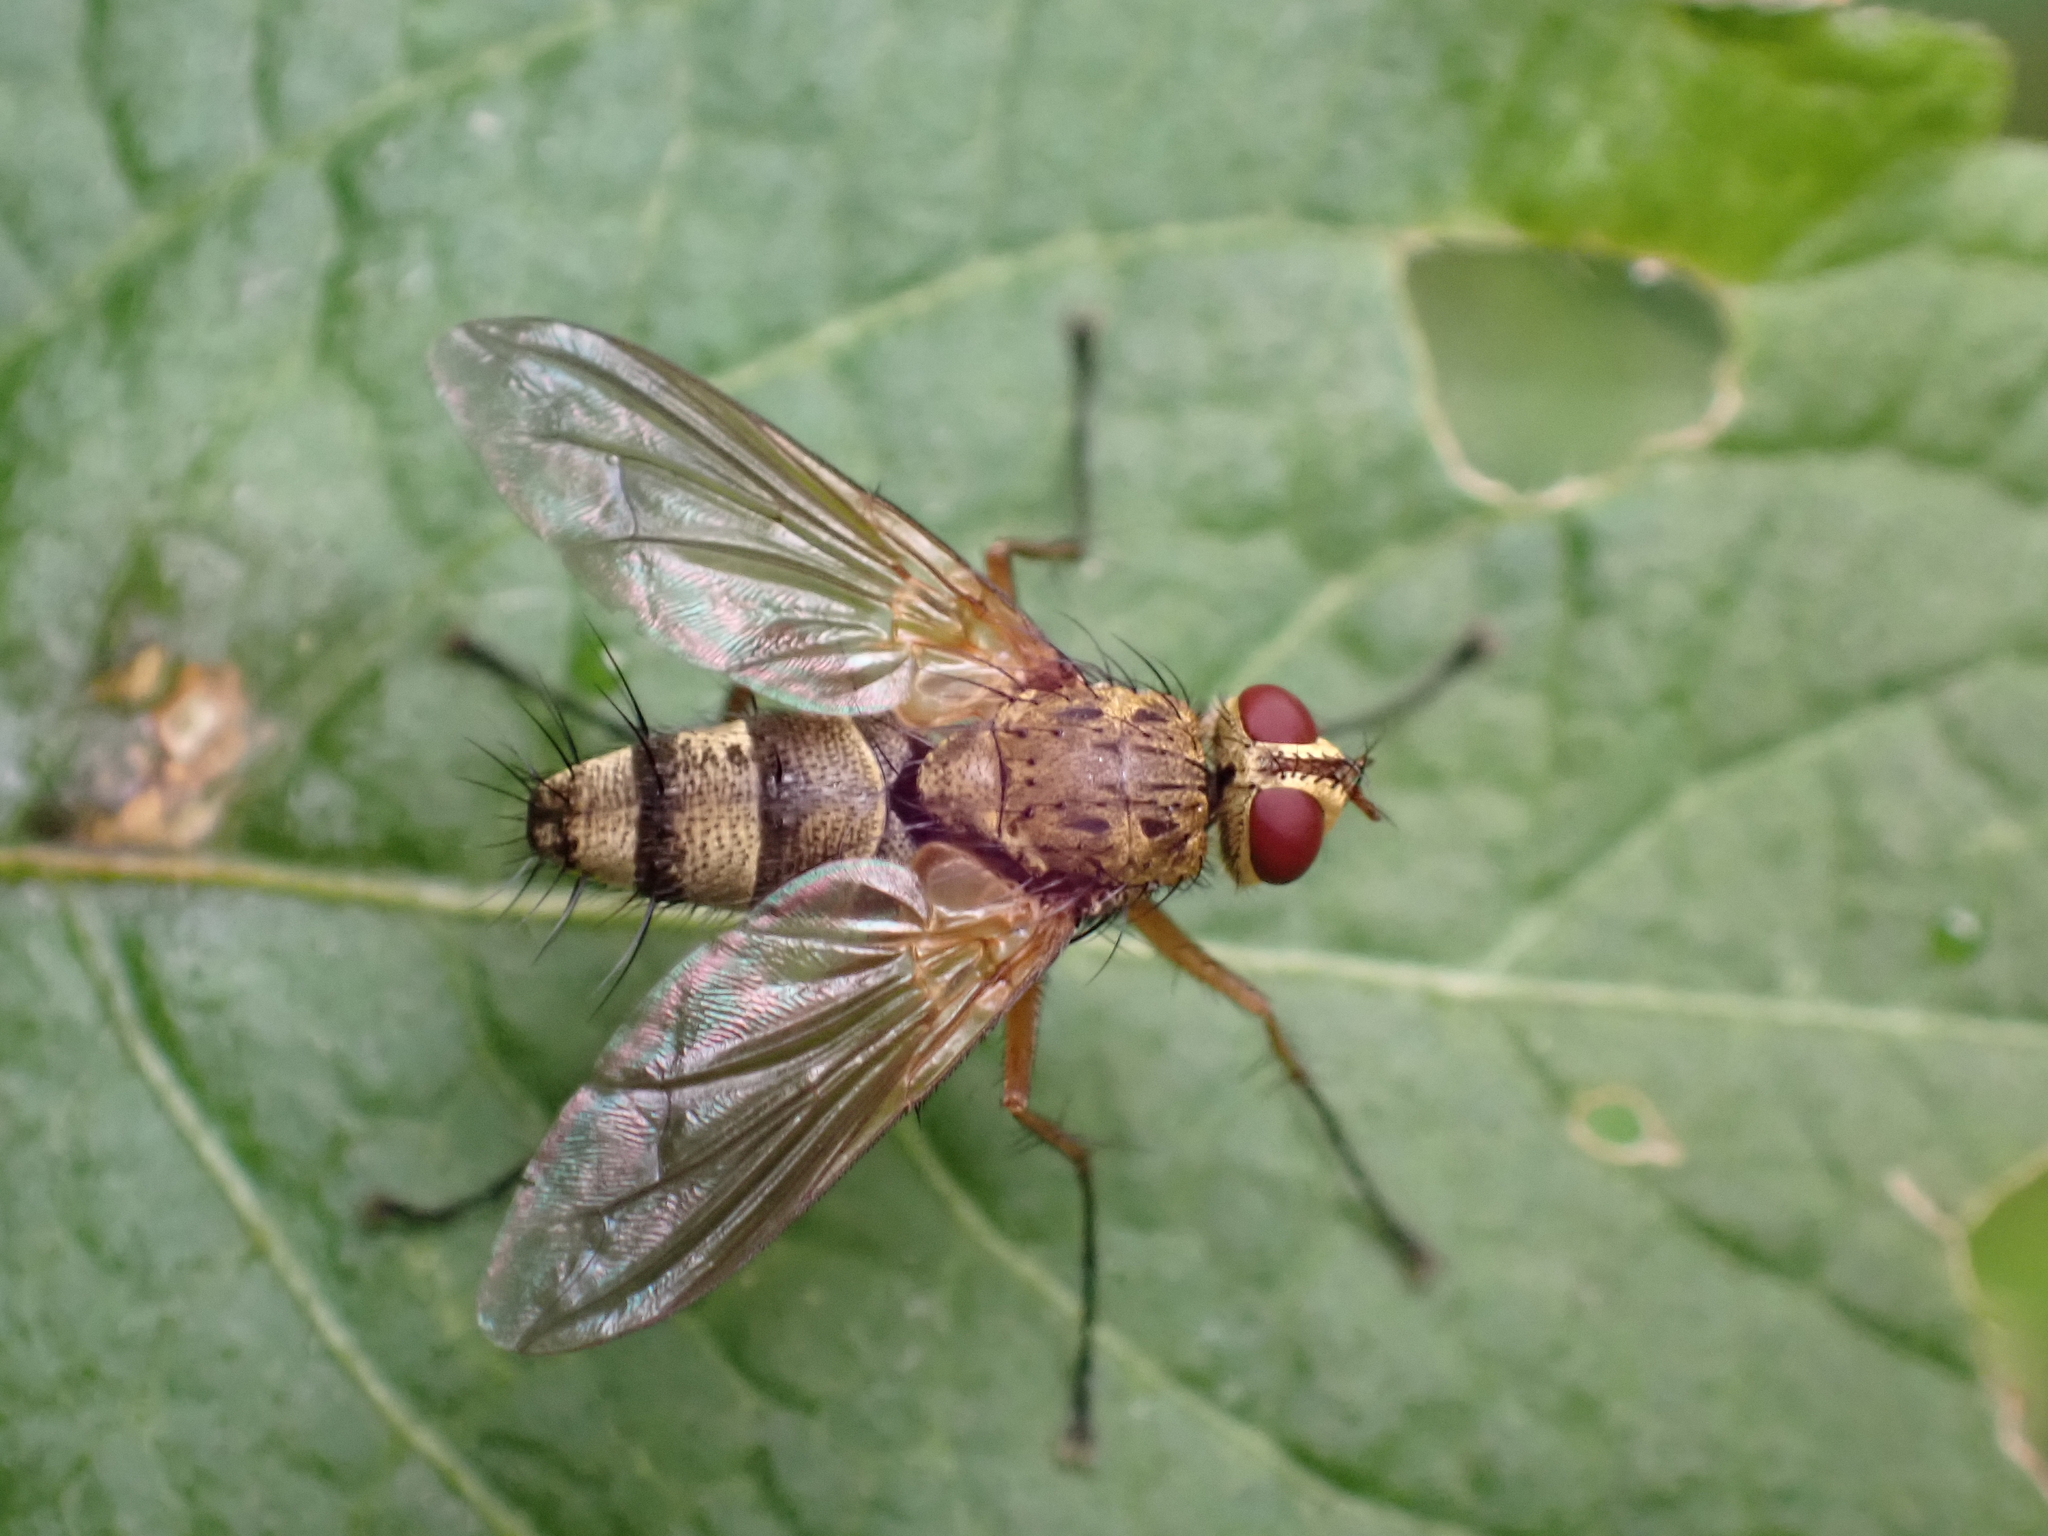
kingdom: Animalia
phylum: Arthropoda
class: Insecta
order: Diptera
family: Tachinidae
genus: Dexiosoma
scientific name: Dexiosoma caninum
